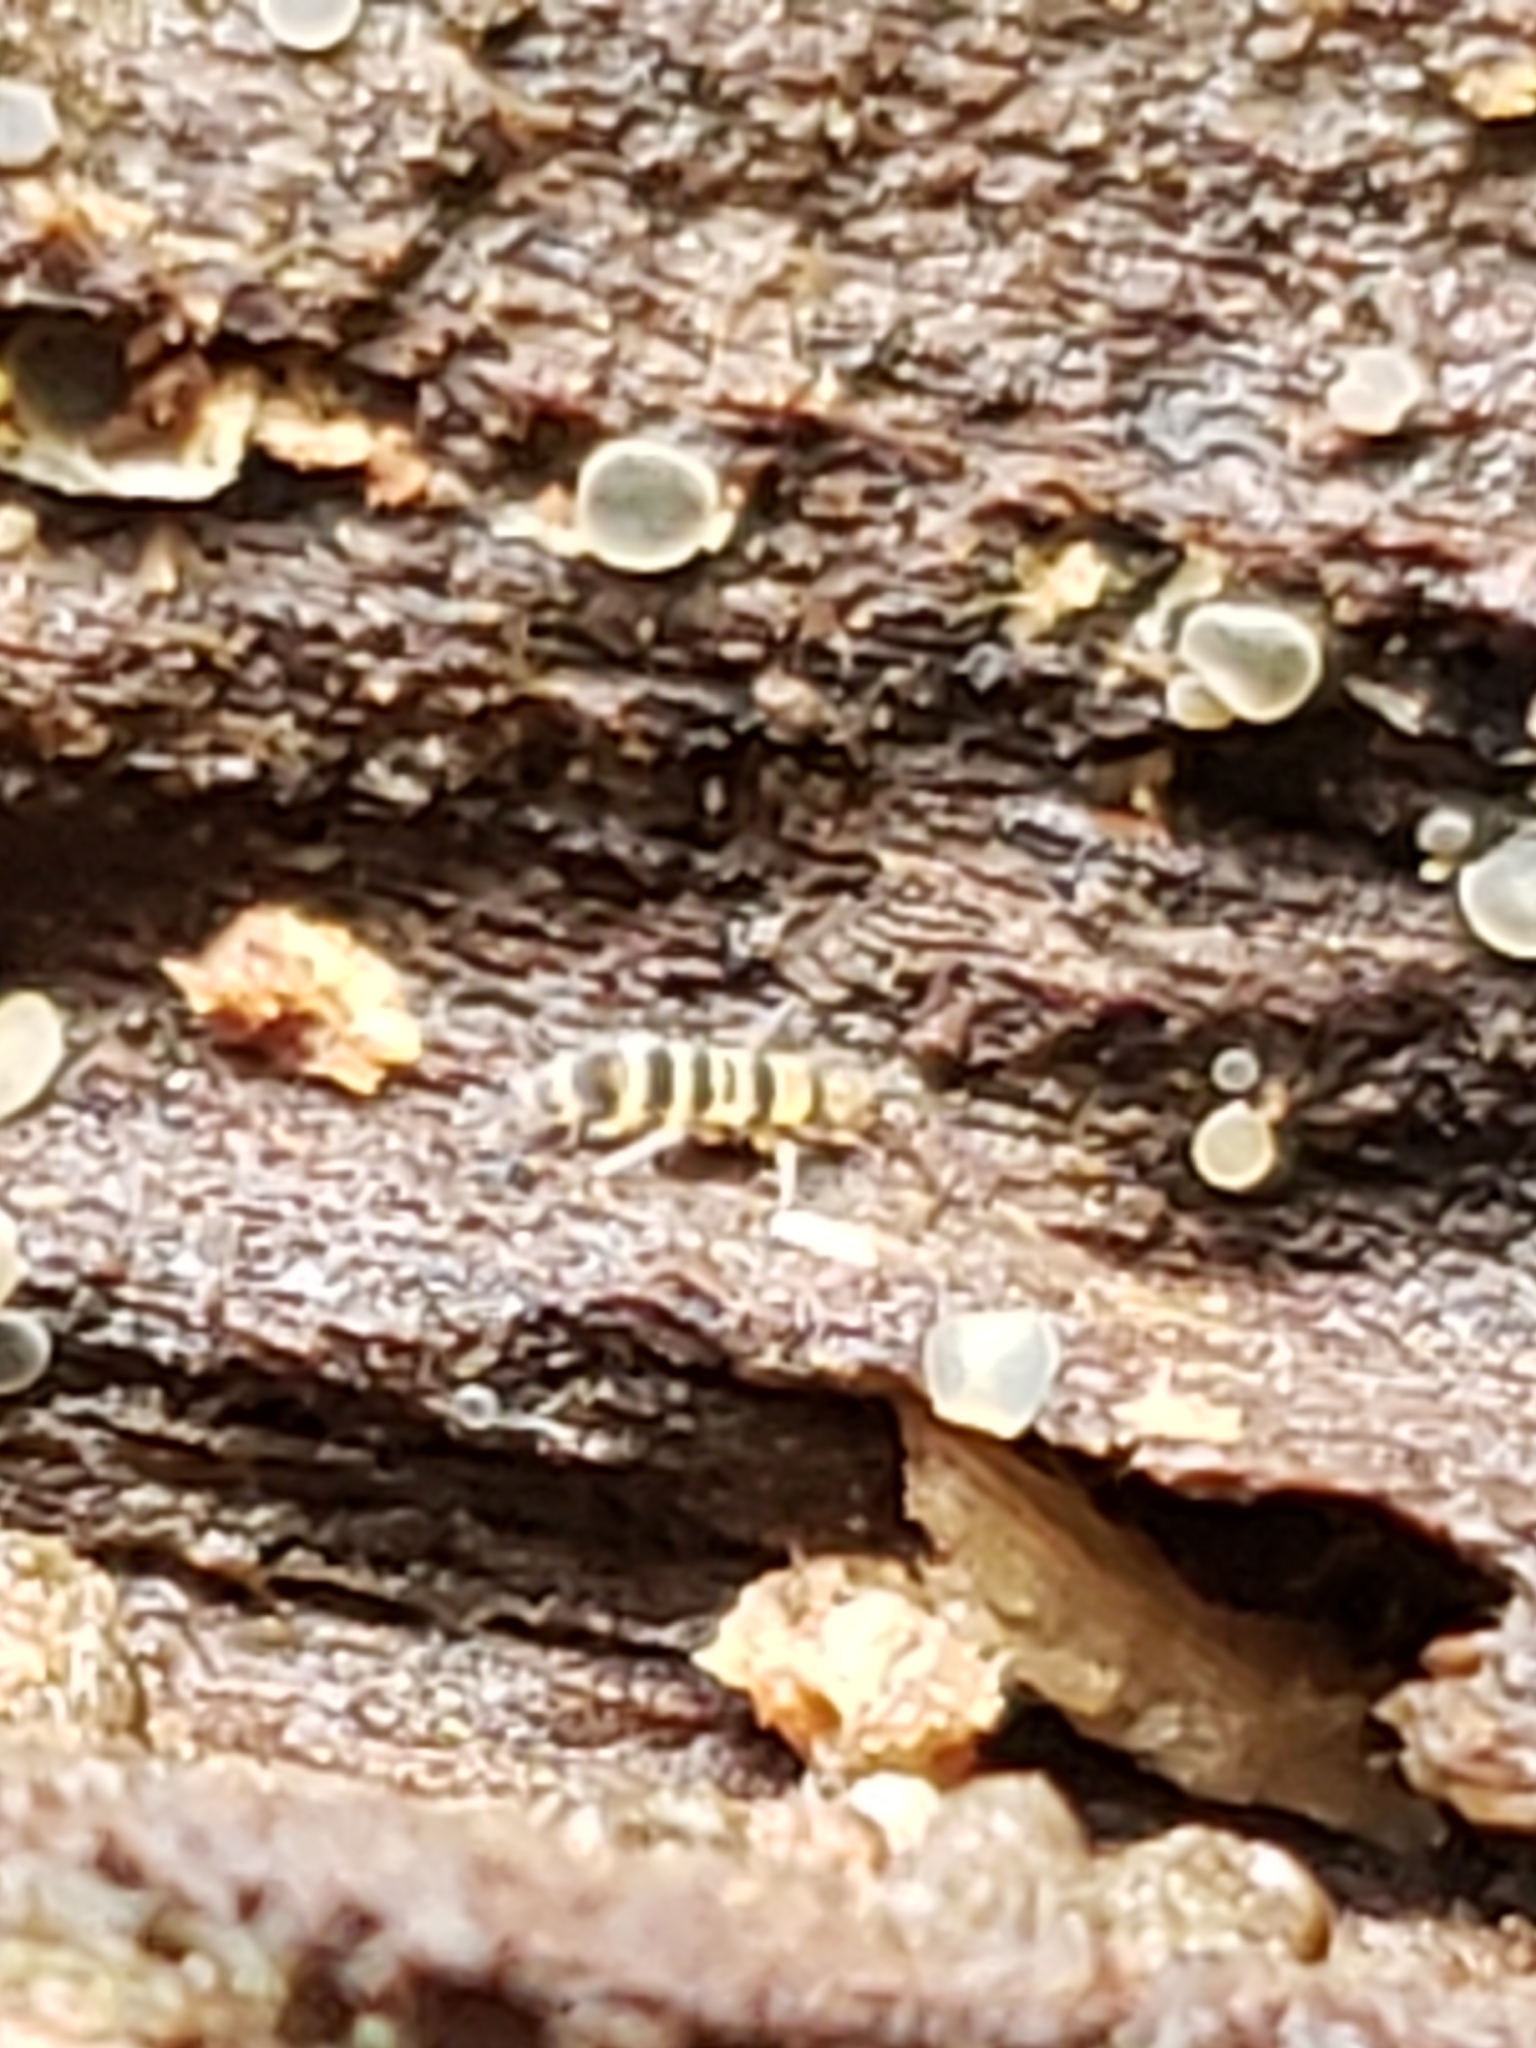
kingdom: Animalia
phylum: Arthropoda
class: Collembola
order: Entomobryomorpha
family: Orchesellidae
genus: Orchesella
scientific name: Orchesella hexfasciata
